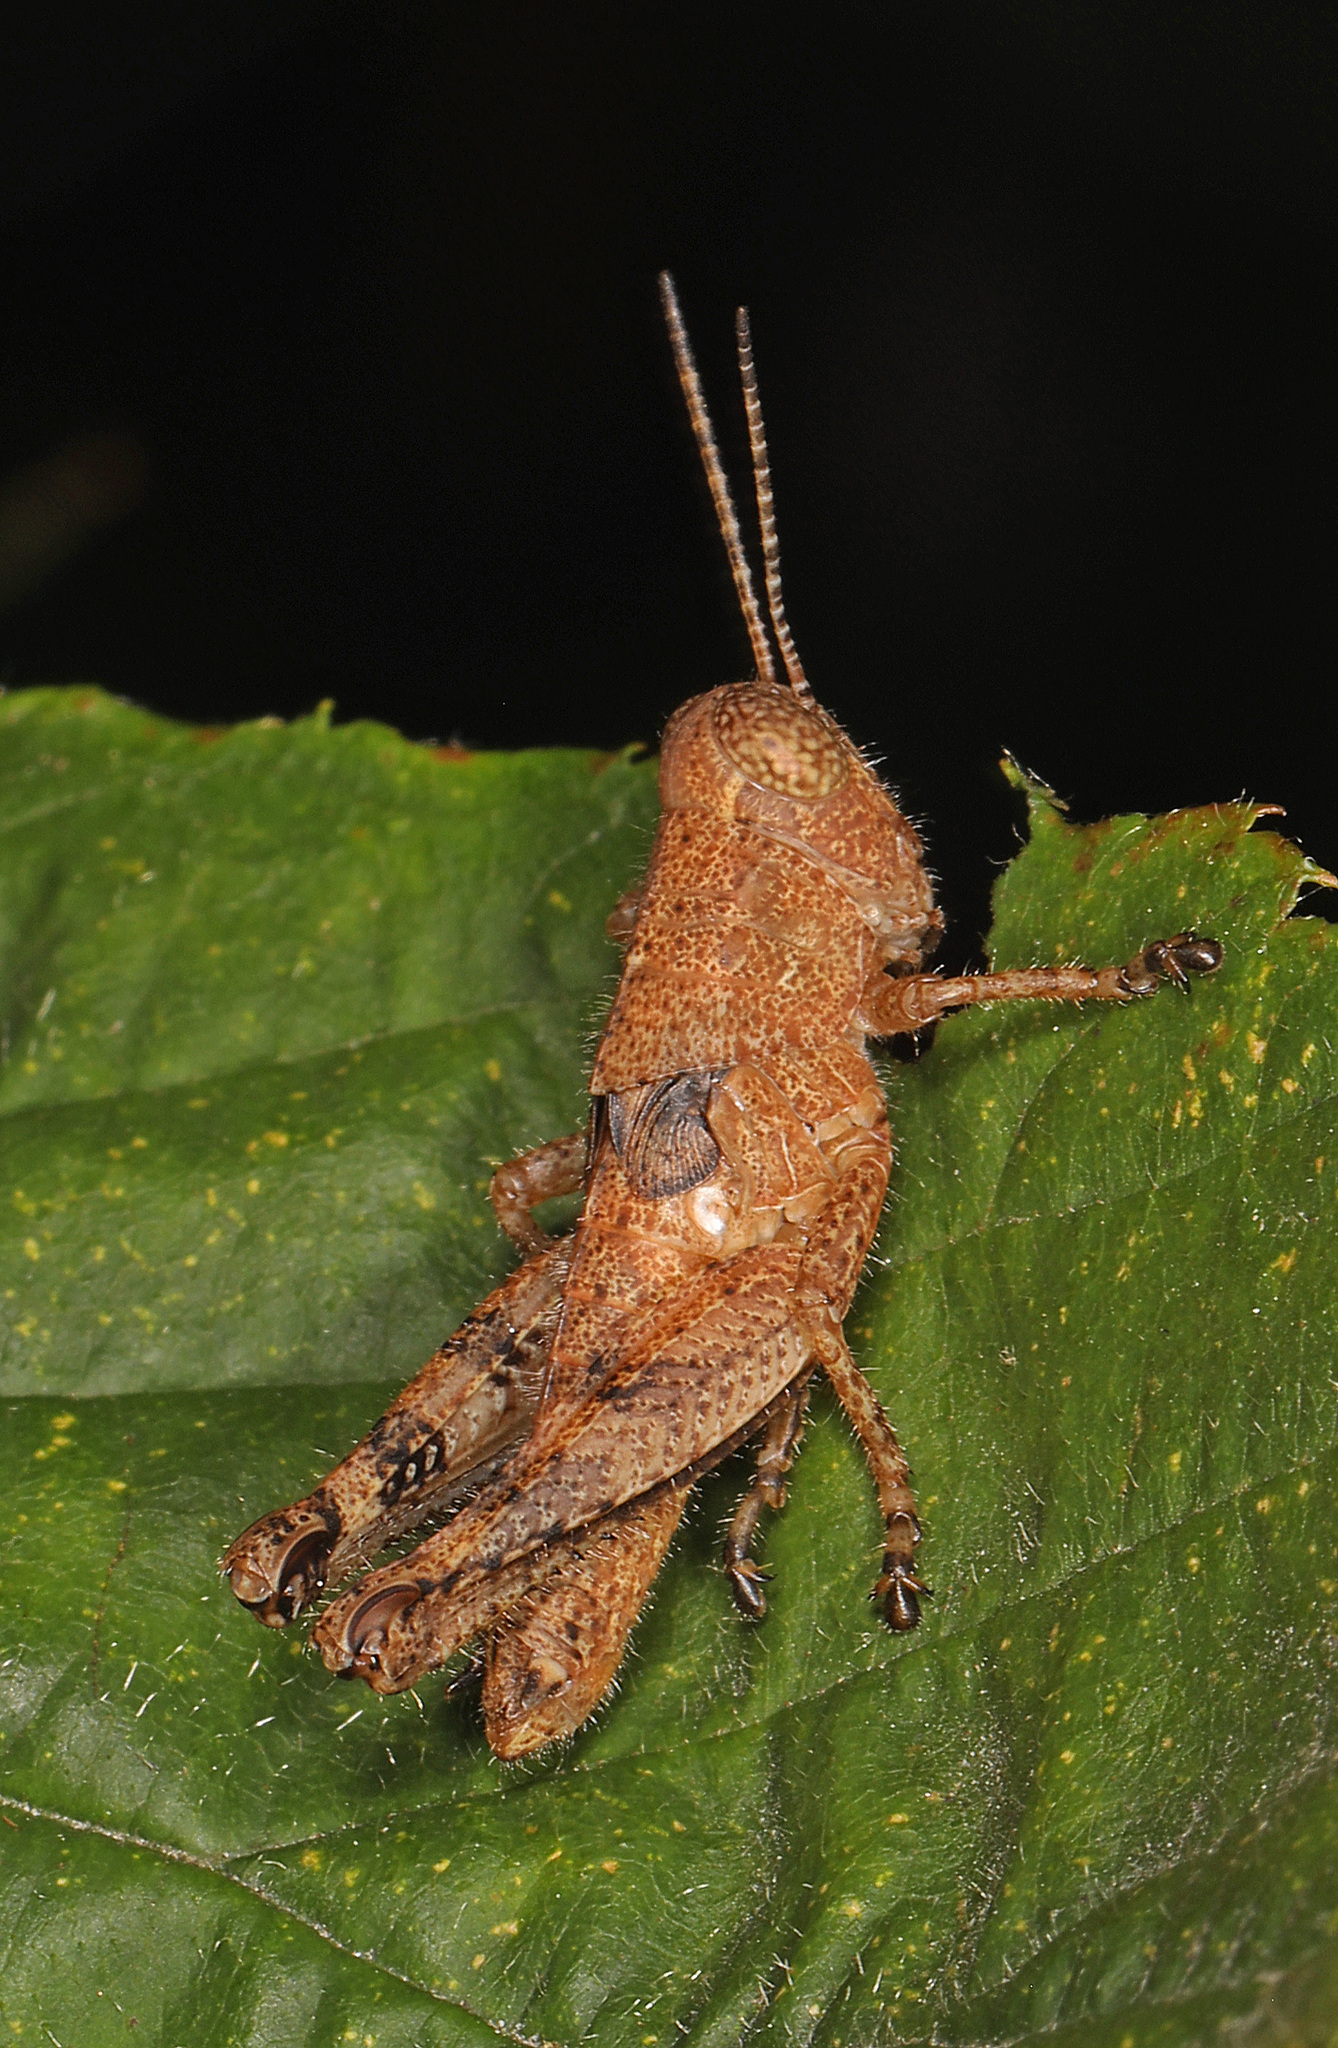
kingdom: Animalia
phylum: Arthropoda
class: Insecta
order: Orthoptera
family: Acrididae
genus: Melanoplus
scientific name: Melanoplus scudderi
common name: Scudder's short-winged locust
